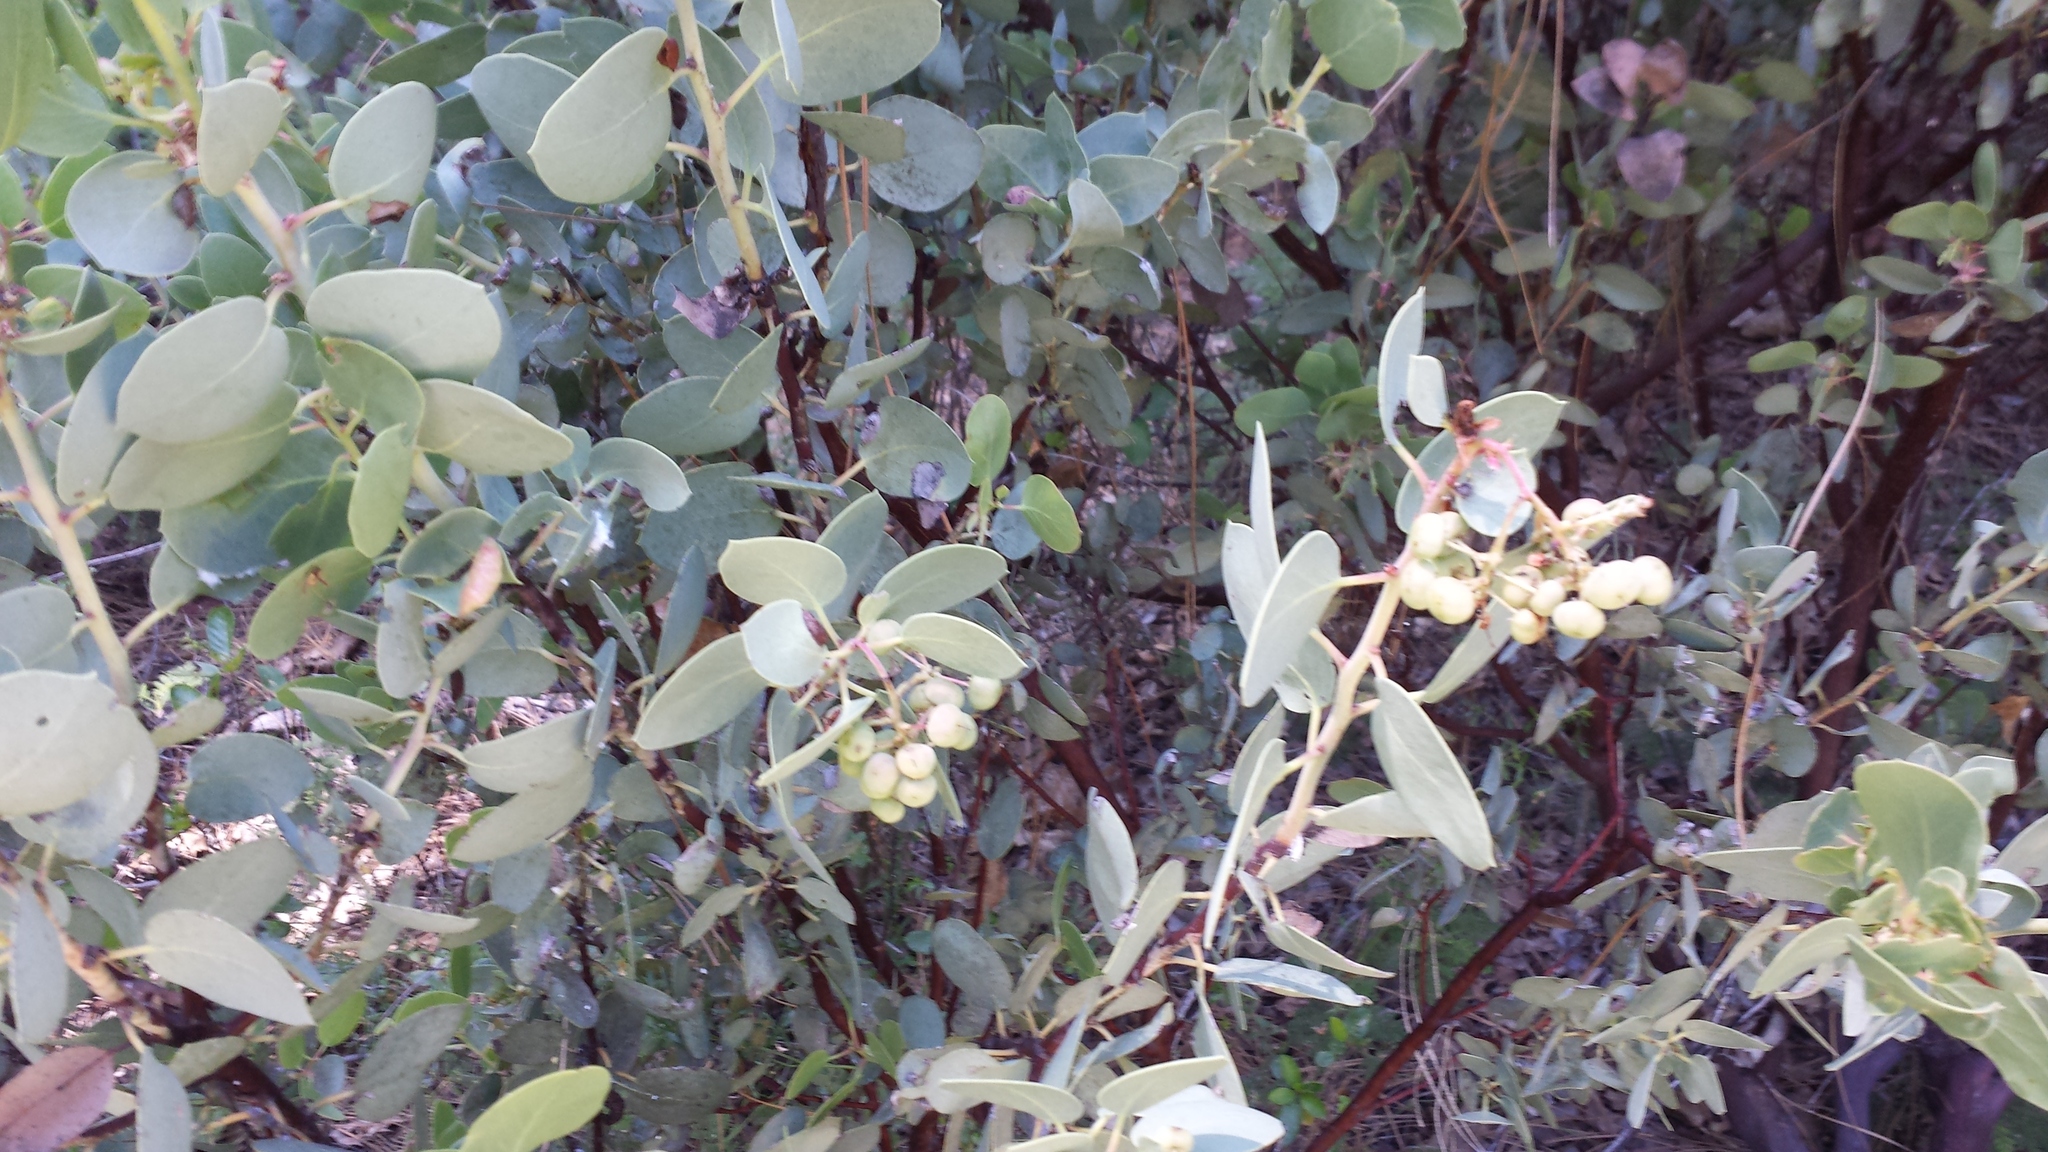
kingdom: Plantae
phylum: Tracheophyta
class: Magnoliopsida
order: Ericales
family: Ericaceae
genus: Arctostaphylos
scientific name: Arctostaphylos viscida
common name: White-leaf manzanita
